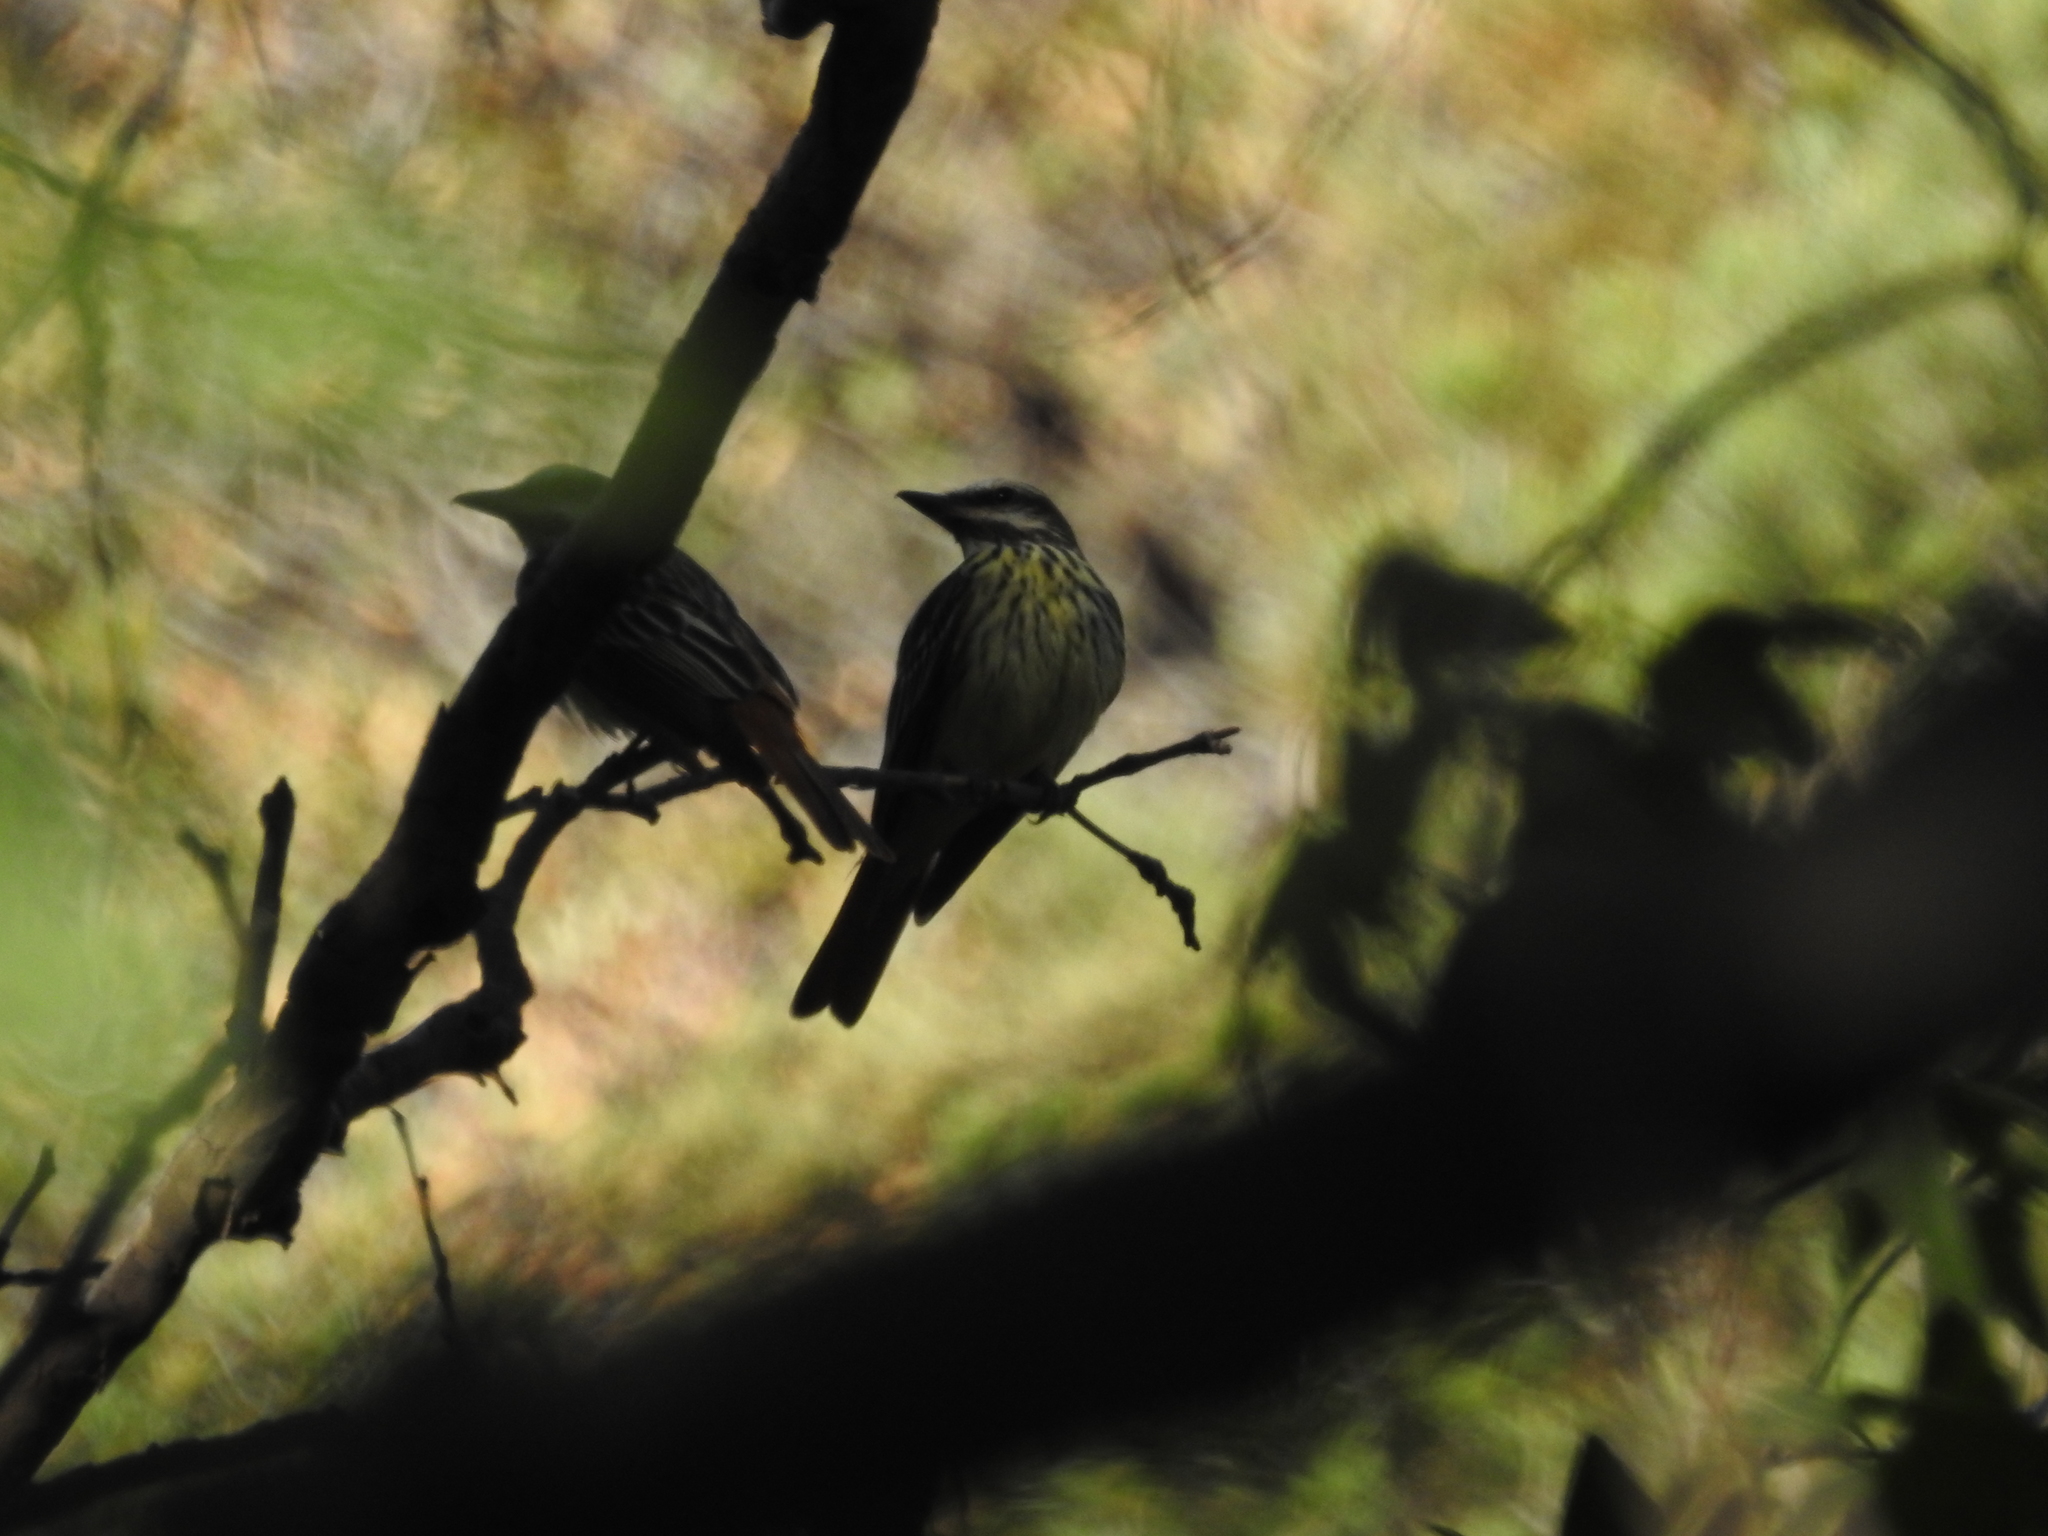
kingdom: Animalia
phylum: Chordata
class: Aves
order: Passeriformes
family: Tyrannidae
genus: Myiodynastes
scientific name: Myiodynastes luteiventris
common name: Sulphur-bellied flycatcher
